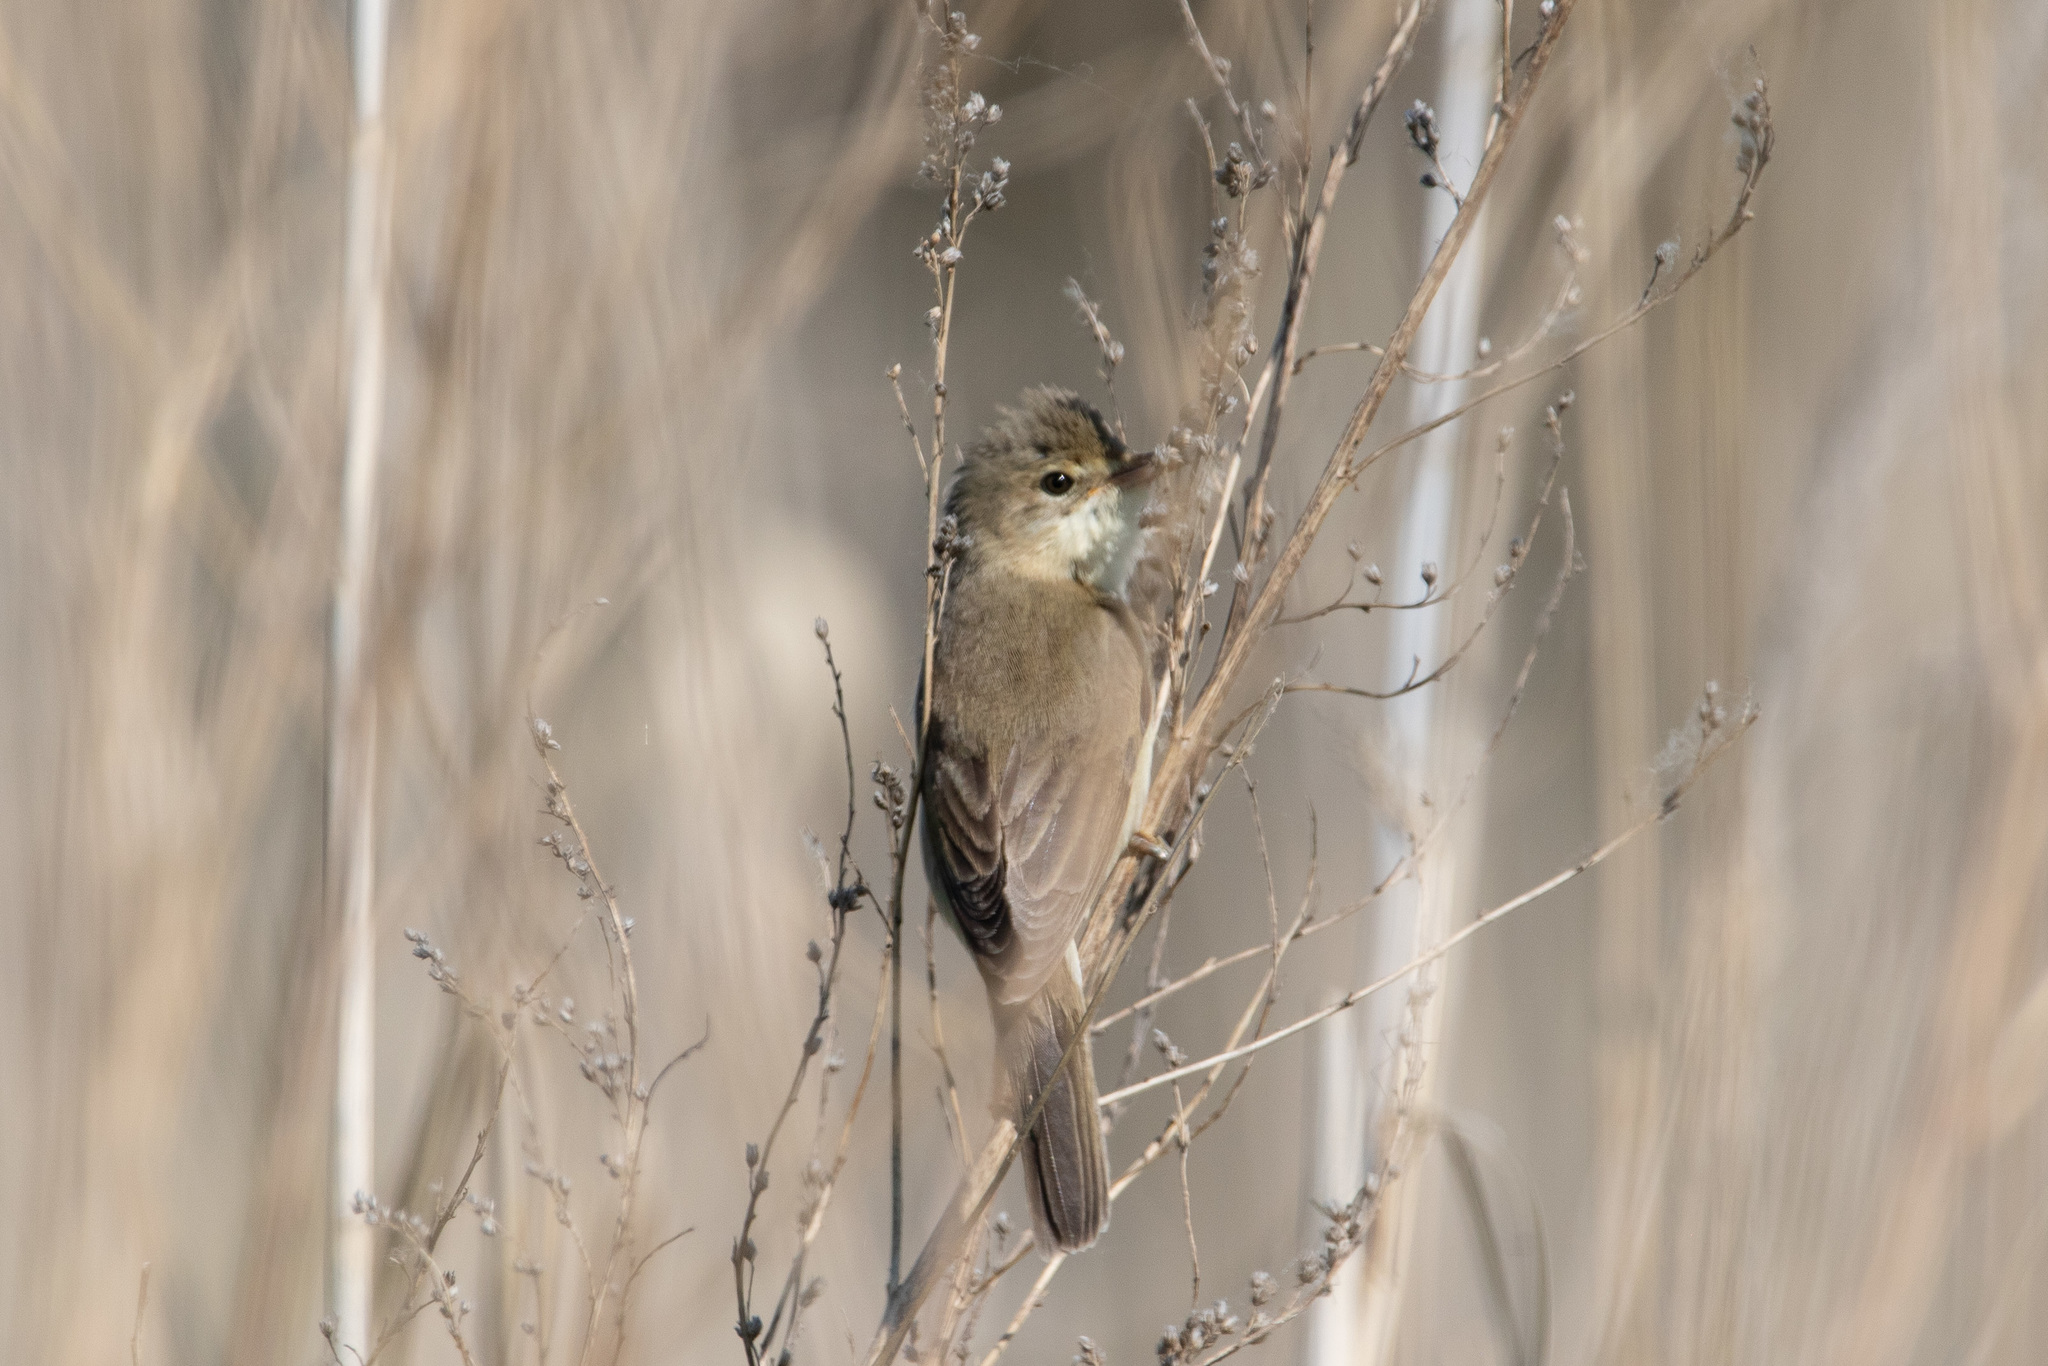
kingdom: Animalia
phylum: Chordata
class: Aves
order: Passeriformes
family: Acrocephalidae
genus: Acrocephalus
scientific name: Acrocephalus scirpaceus
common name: Eurasian reed warbler
